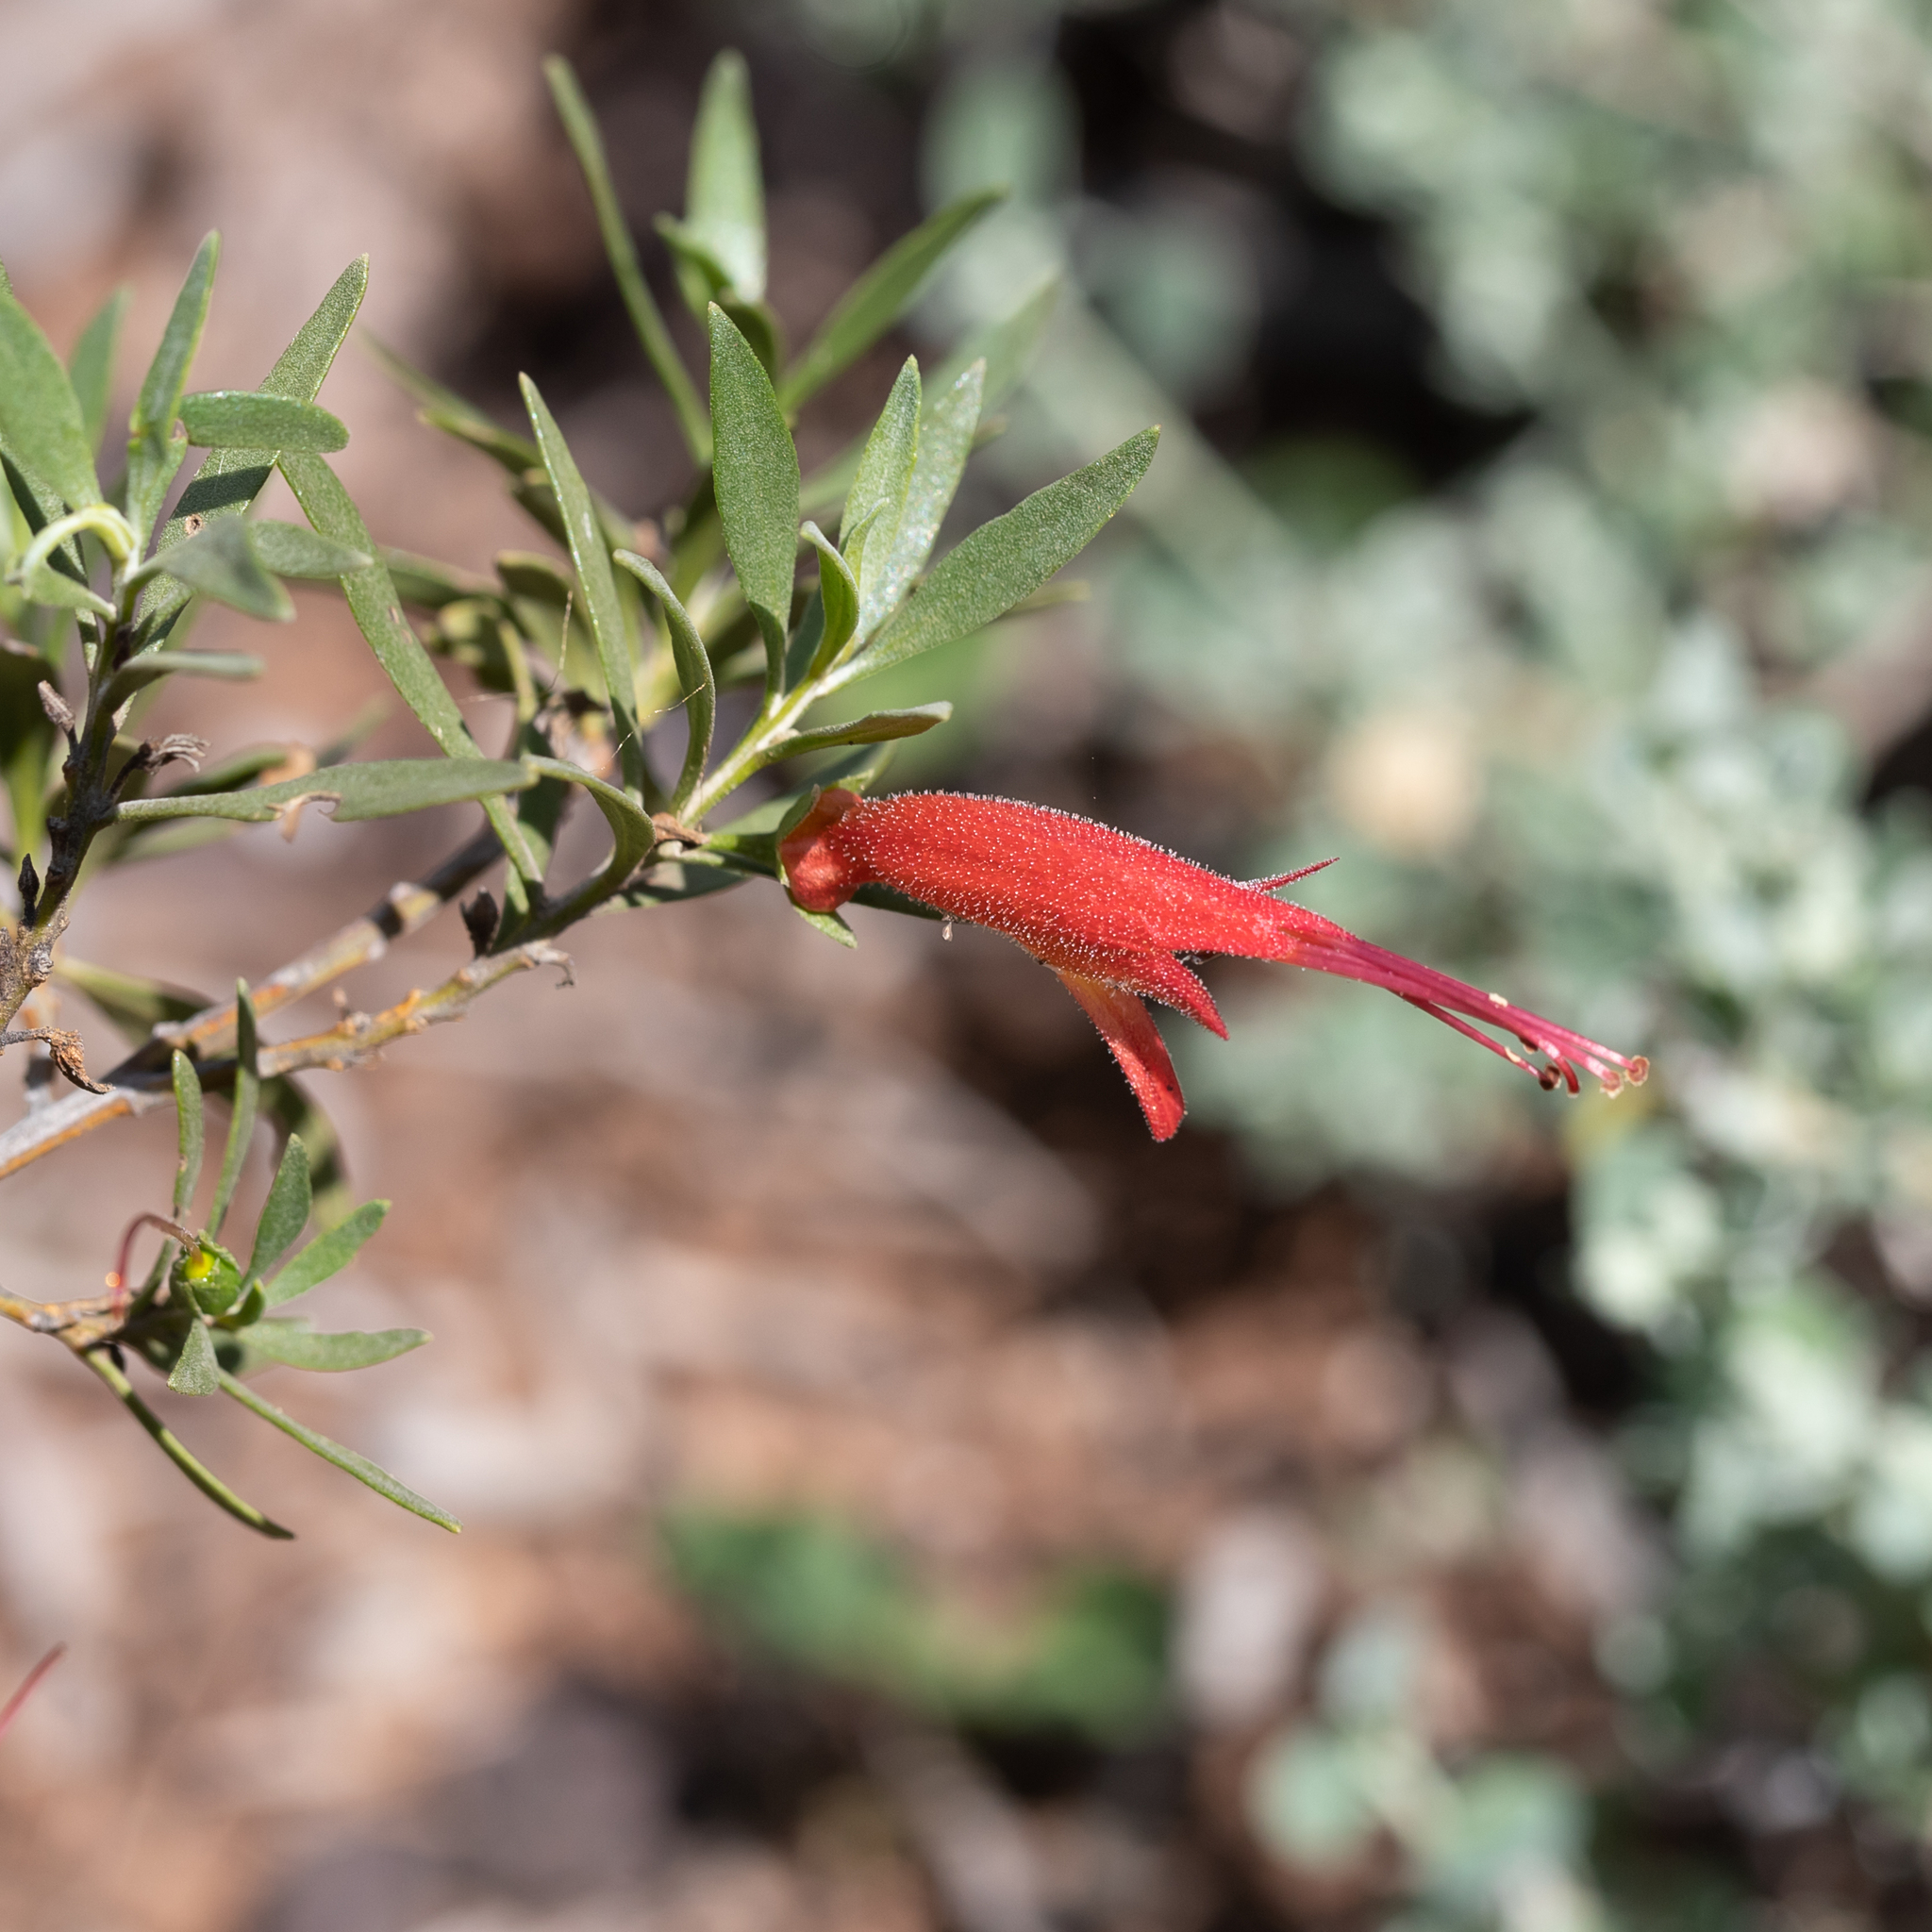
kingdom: Plantae
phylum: Tracheophyta
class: Magnoliopsida
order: Lamiales
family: Scrophulariaceae
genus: Eremophila
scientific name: Eremophila glabra
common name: Black-fuchsia
